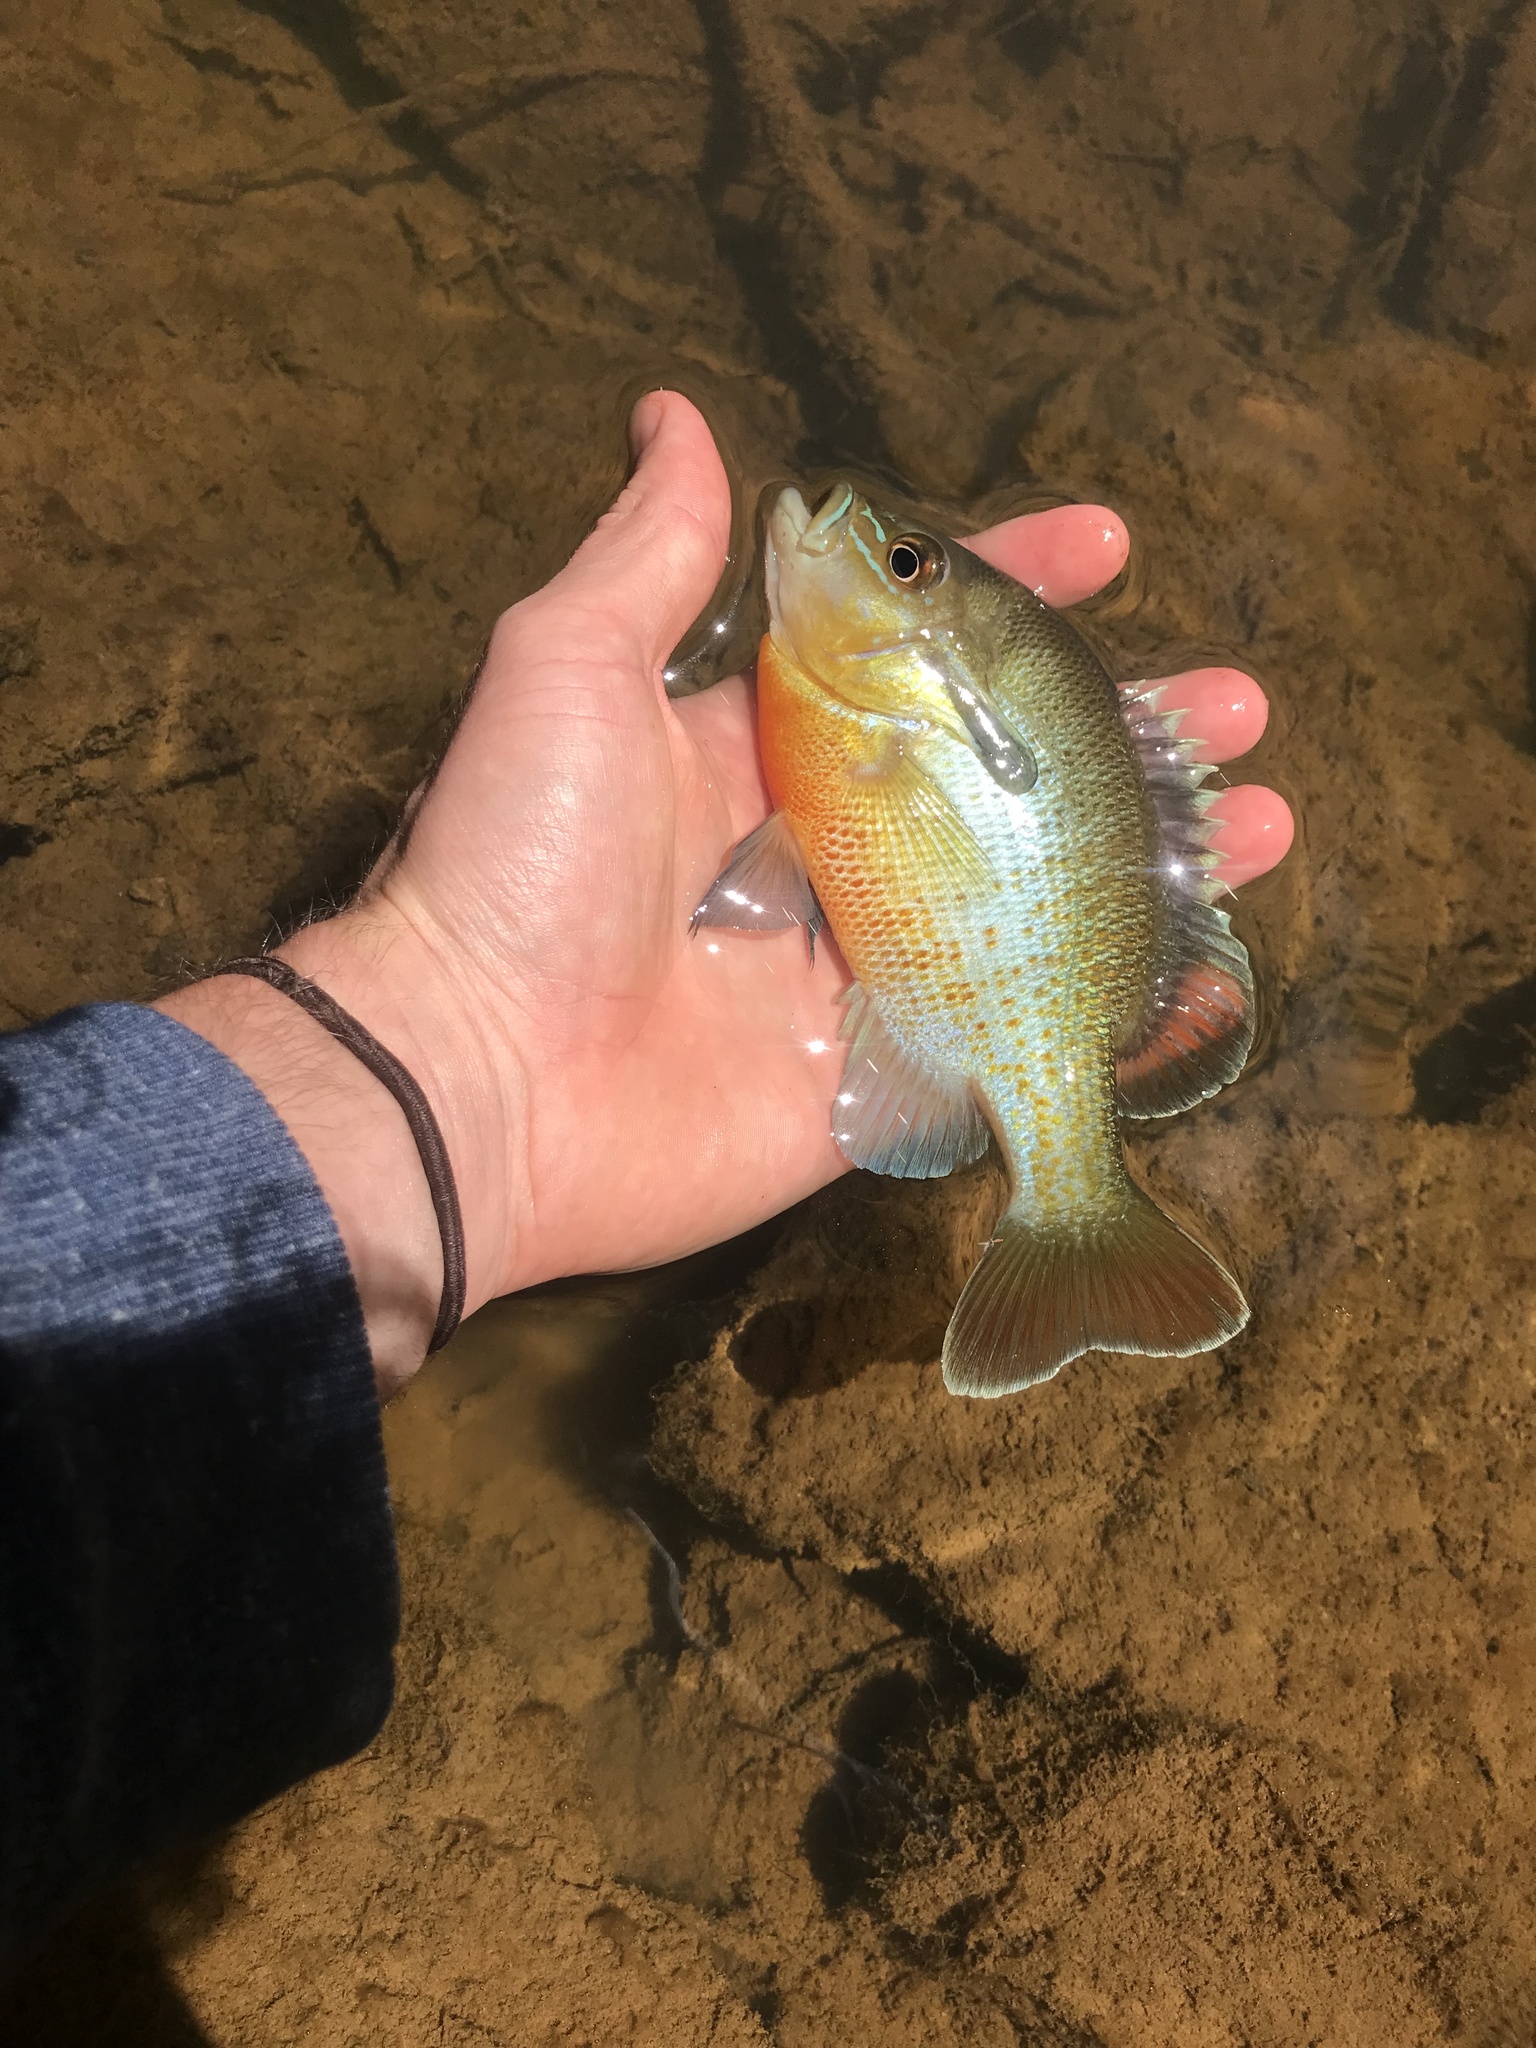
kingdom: Animalia
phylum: Chordata
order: Perciformes
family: Centrarchidae
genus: Lepomis
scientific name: Lepomis auritus
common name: Redbreast sunfish
